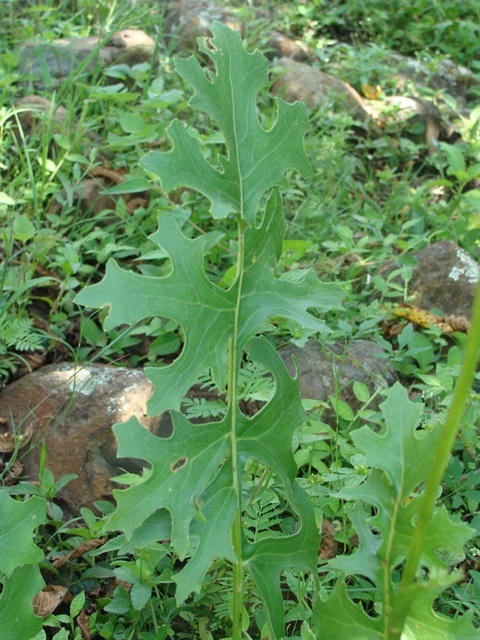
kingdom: Plantae
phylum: Tracheophyta
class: Magnoliopsida
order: Asterales
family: Asteraceae
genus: Psacalium
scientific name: Psacalium sinuatum
